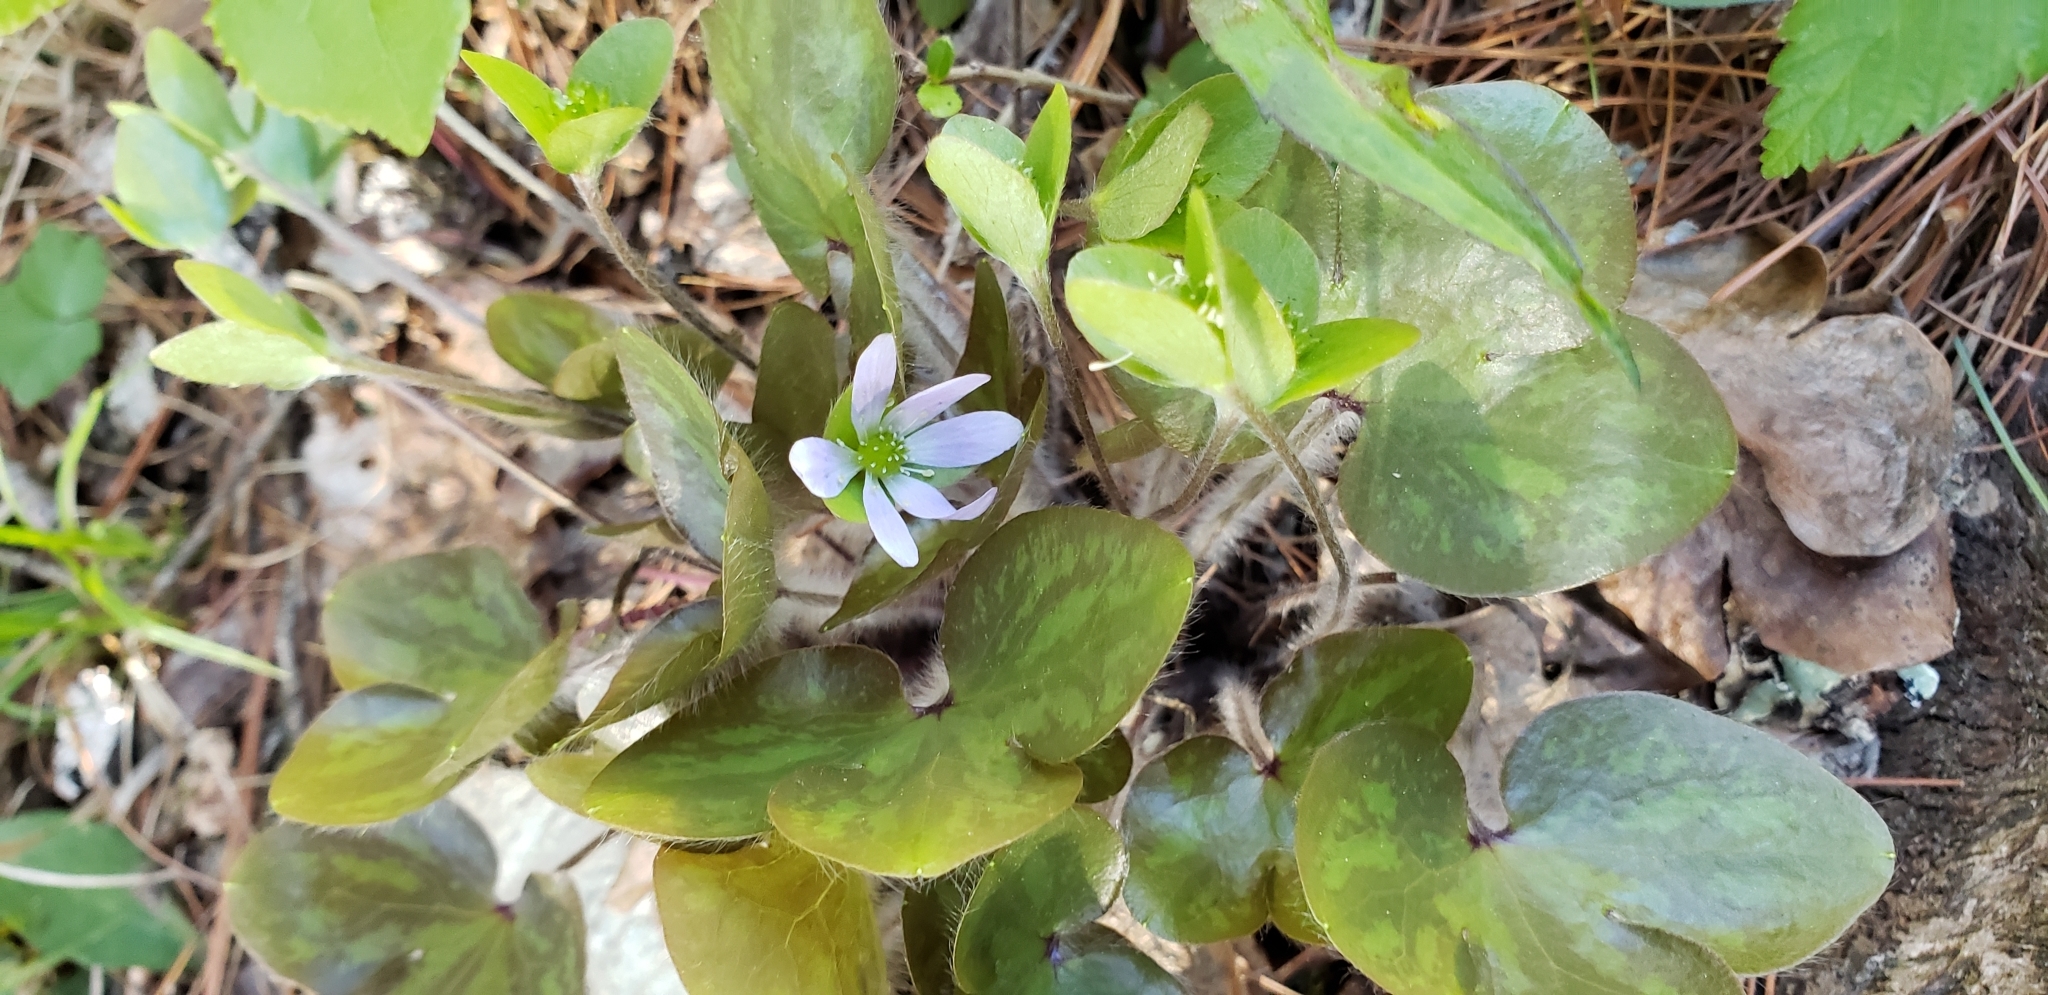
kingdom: Plantae
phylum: Tracheophyta
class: Magnoliopsida
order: Ranunculales
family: Ranunculaceae
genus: Hepatica
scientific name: Hepatica americana
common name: American hepatica
